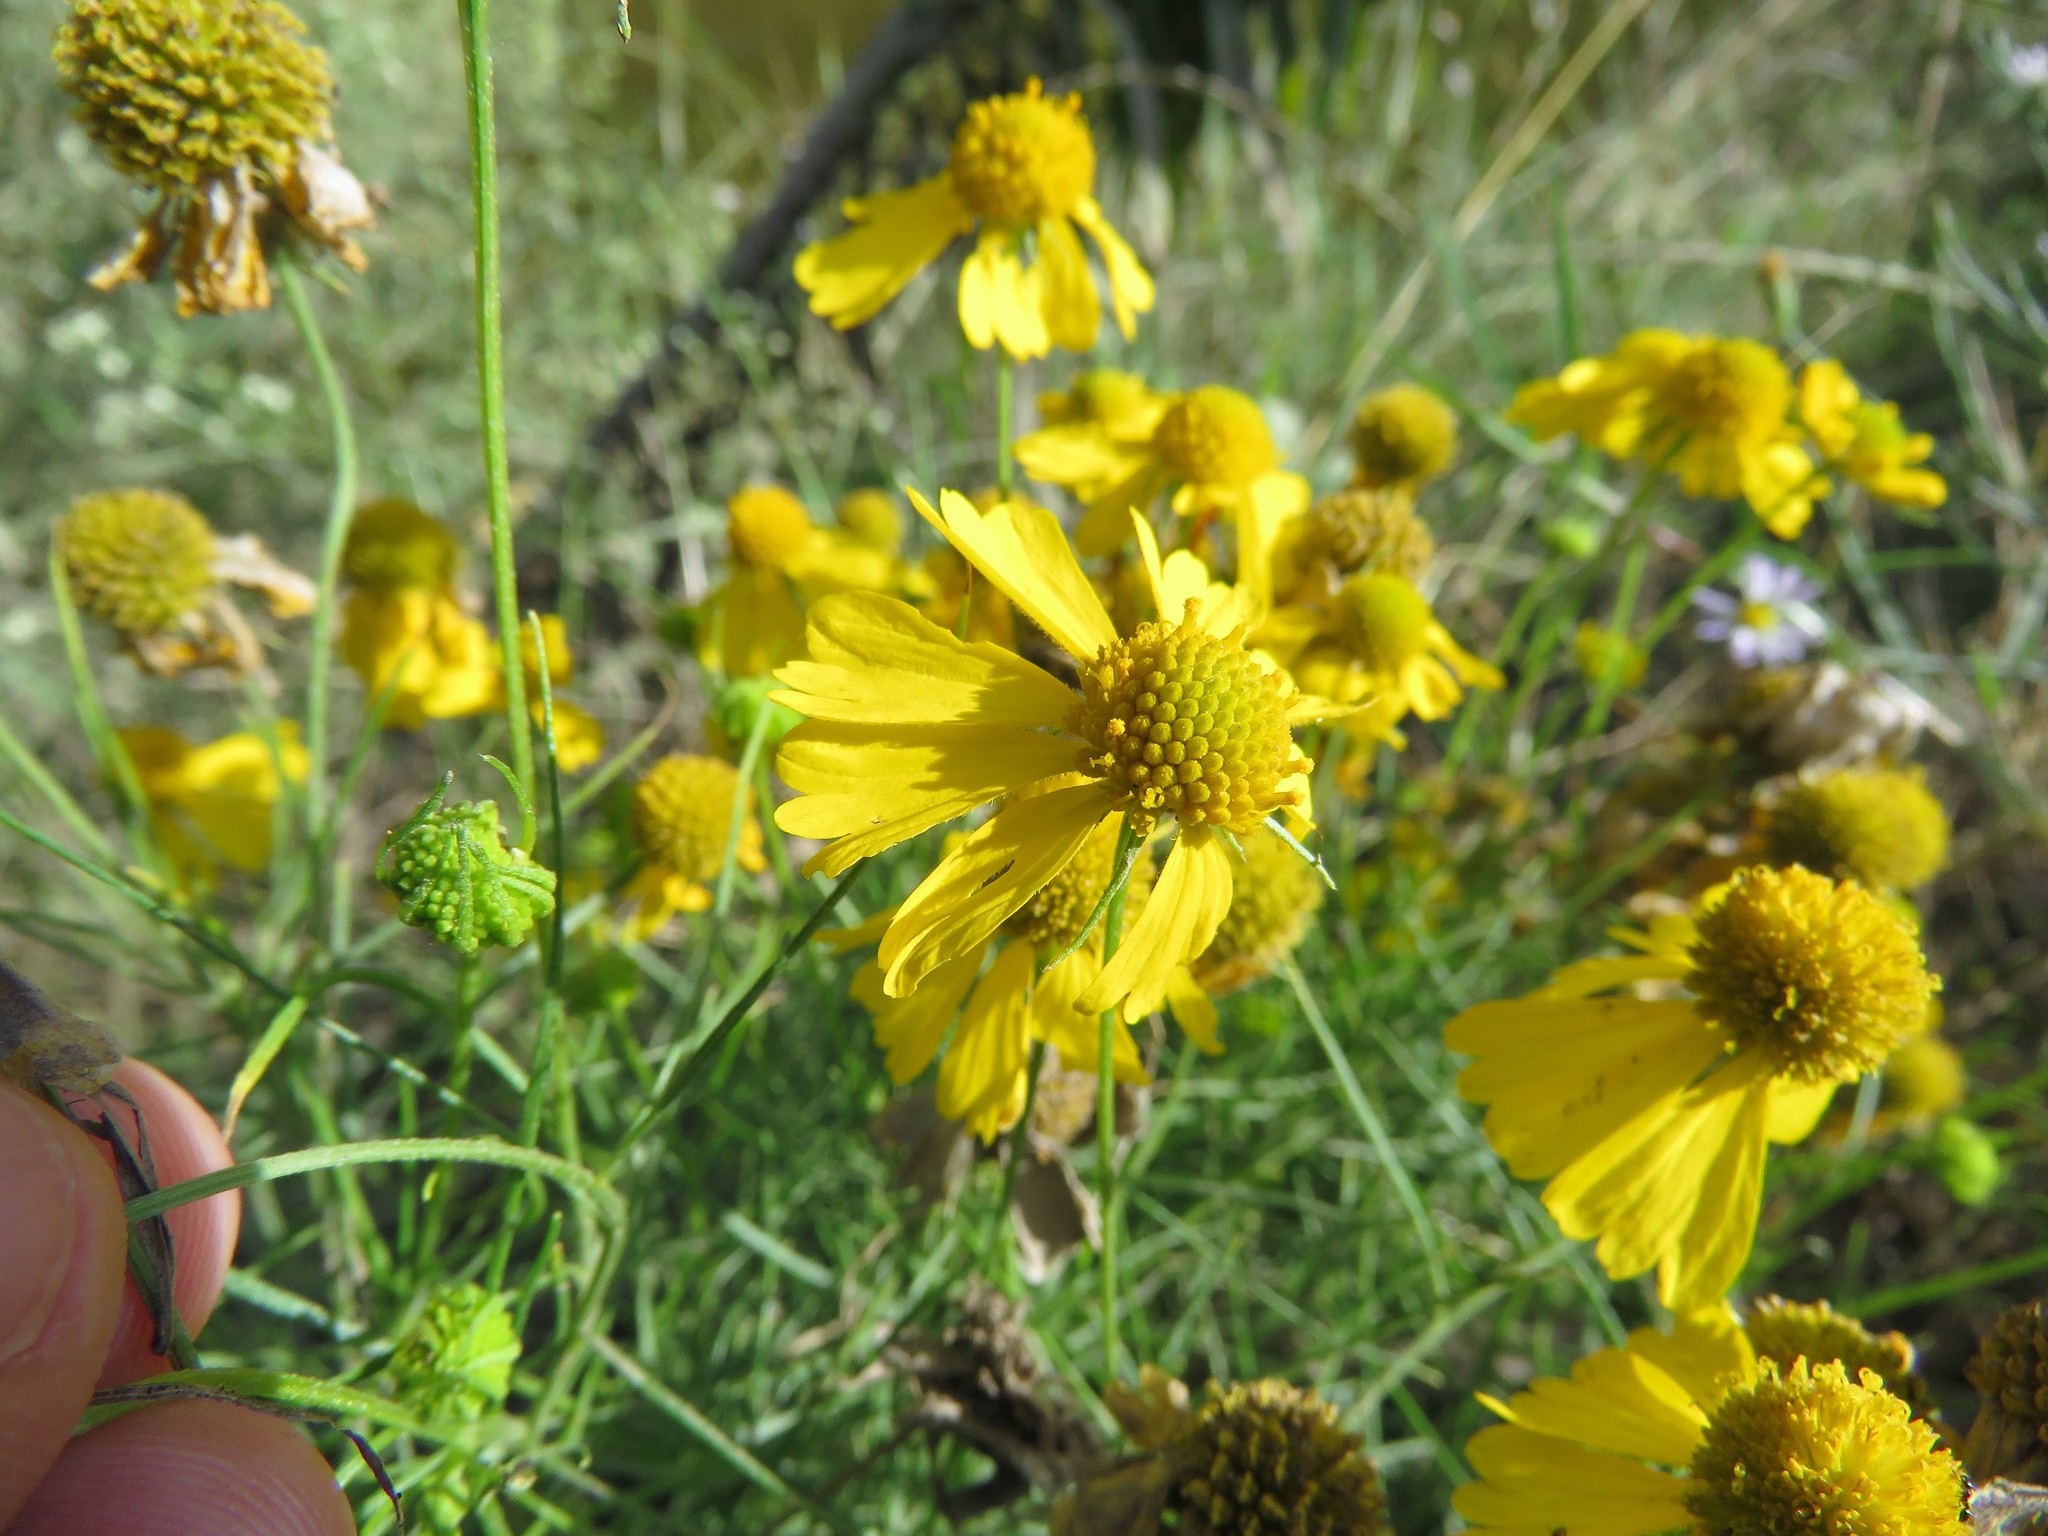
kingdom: Plantae
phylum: Tracheophyta
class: Magnoliopsida
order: Asterales
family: Asteraceae
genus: Helenium
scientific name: Helenium amarum
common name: Bitter sneezeweed
